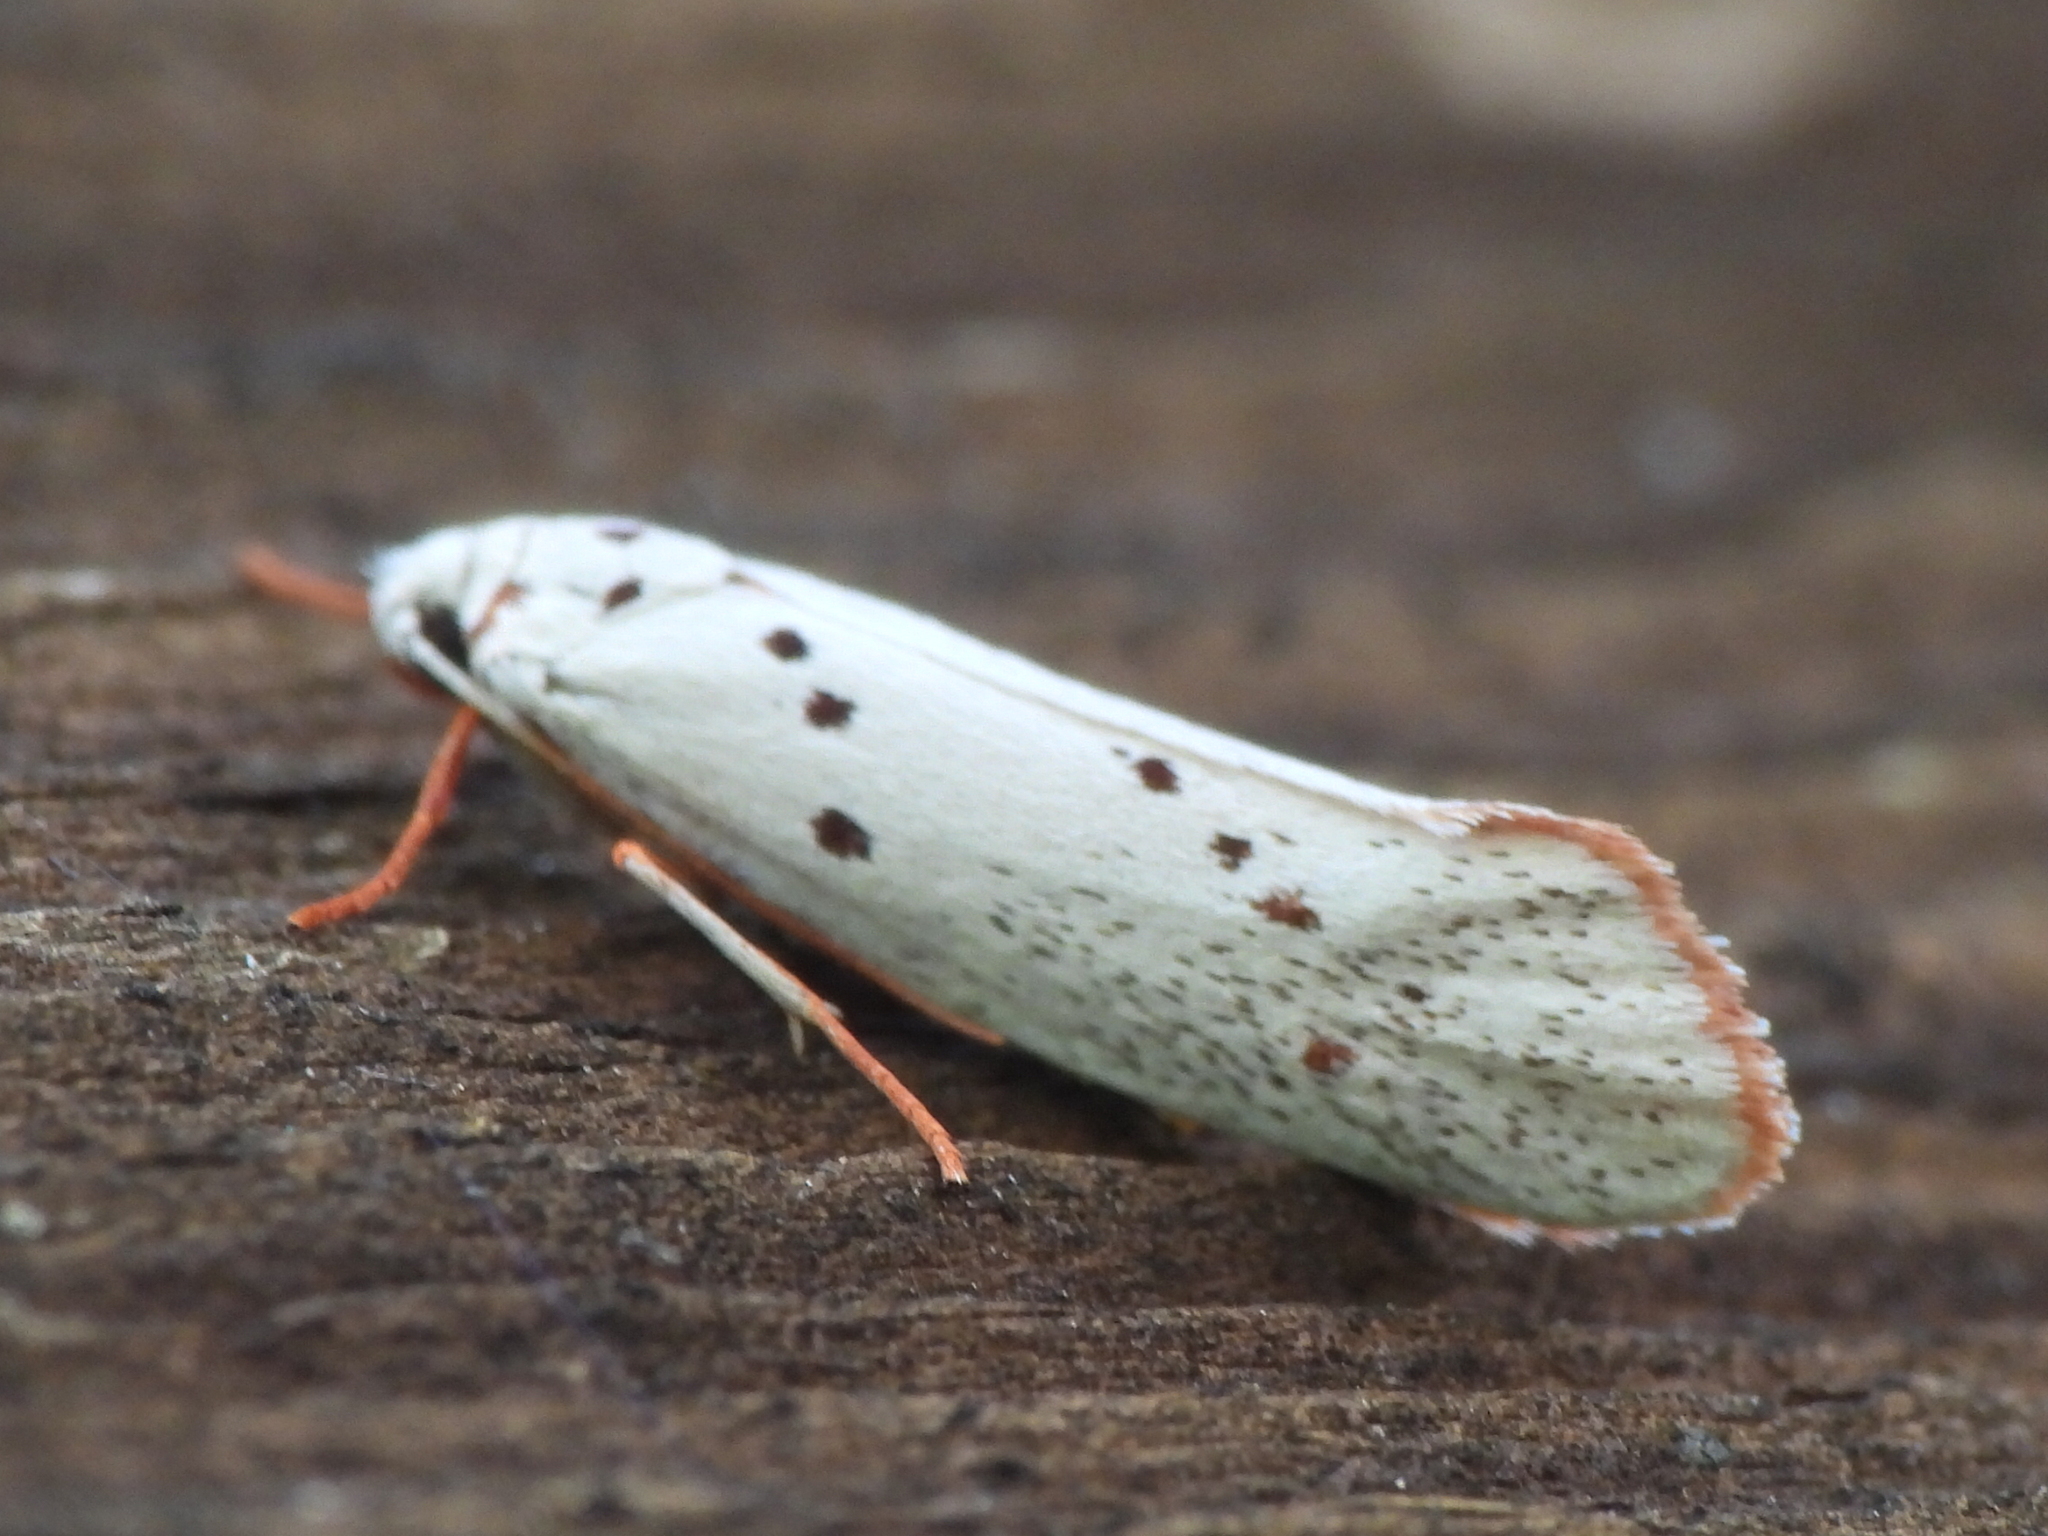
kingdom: Animalia
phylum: Arthropoda
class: Insecta
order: Lepidoptera
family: Lacturidae
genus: Lactura
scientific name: Lactura
